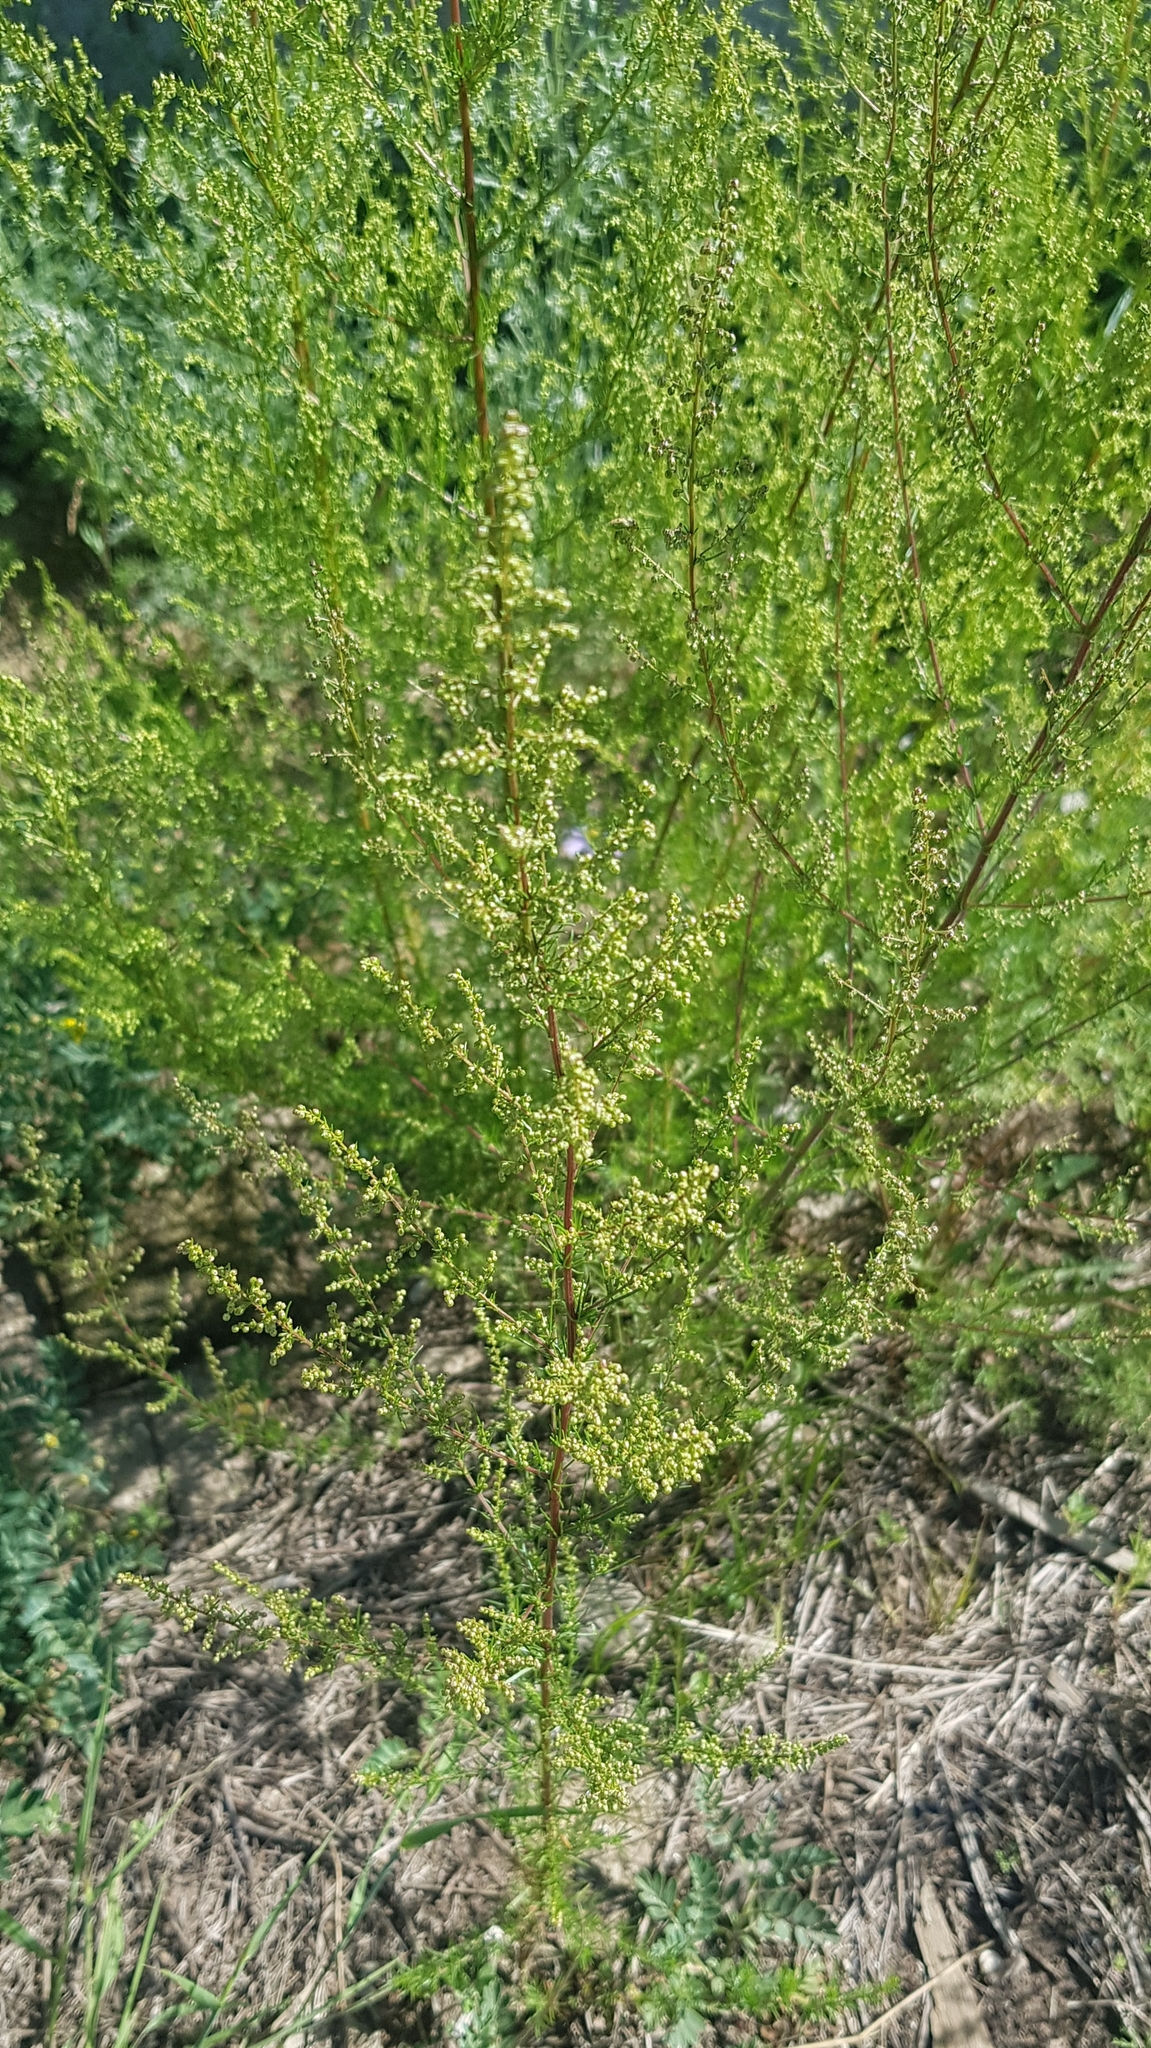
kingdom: Plantae
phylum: Tracheophyta
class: Magnoliopsida
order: Asterales
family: Asteraceae
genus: Artemisia
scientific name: Artemisia scoparia
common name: Redstem wormwood
